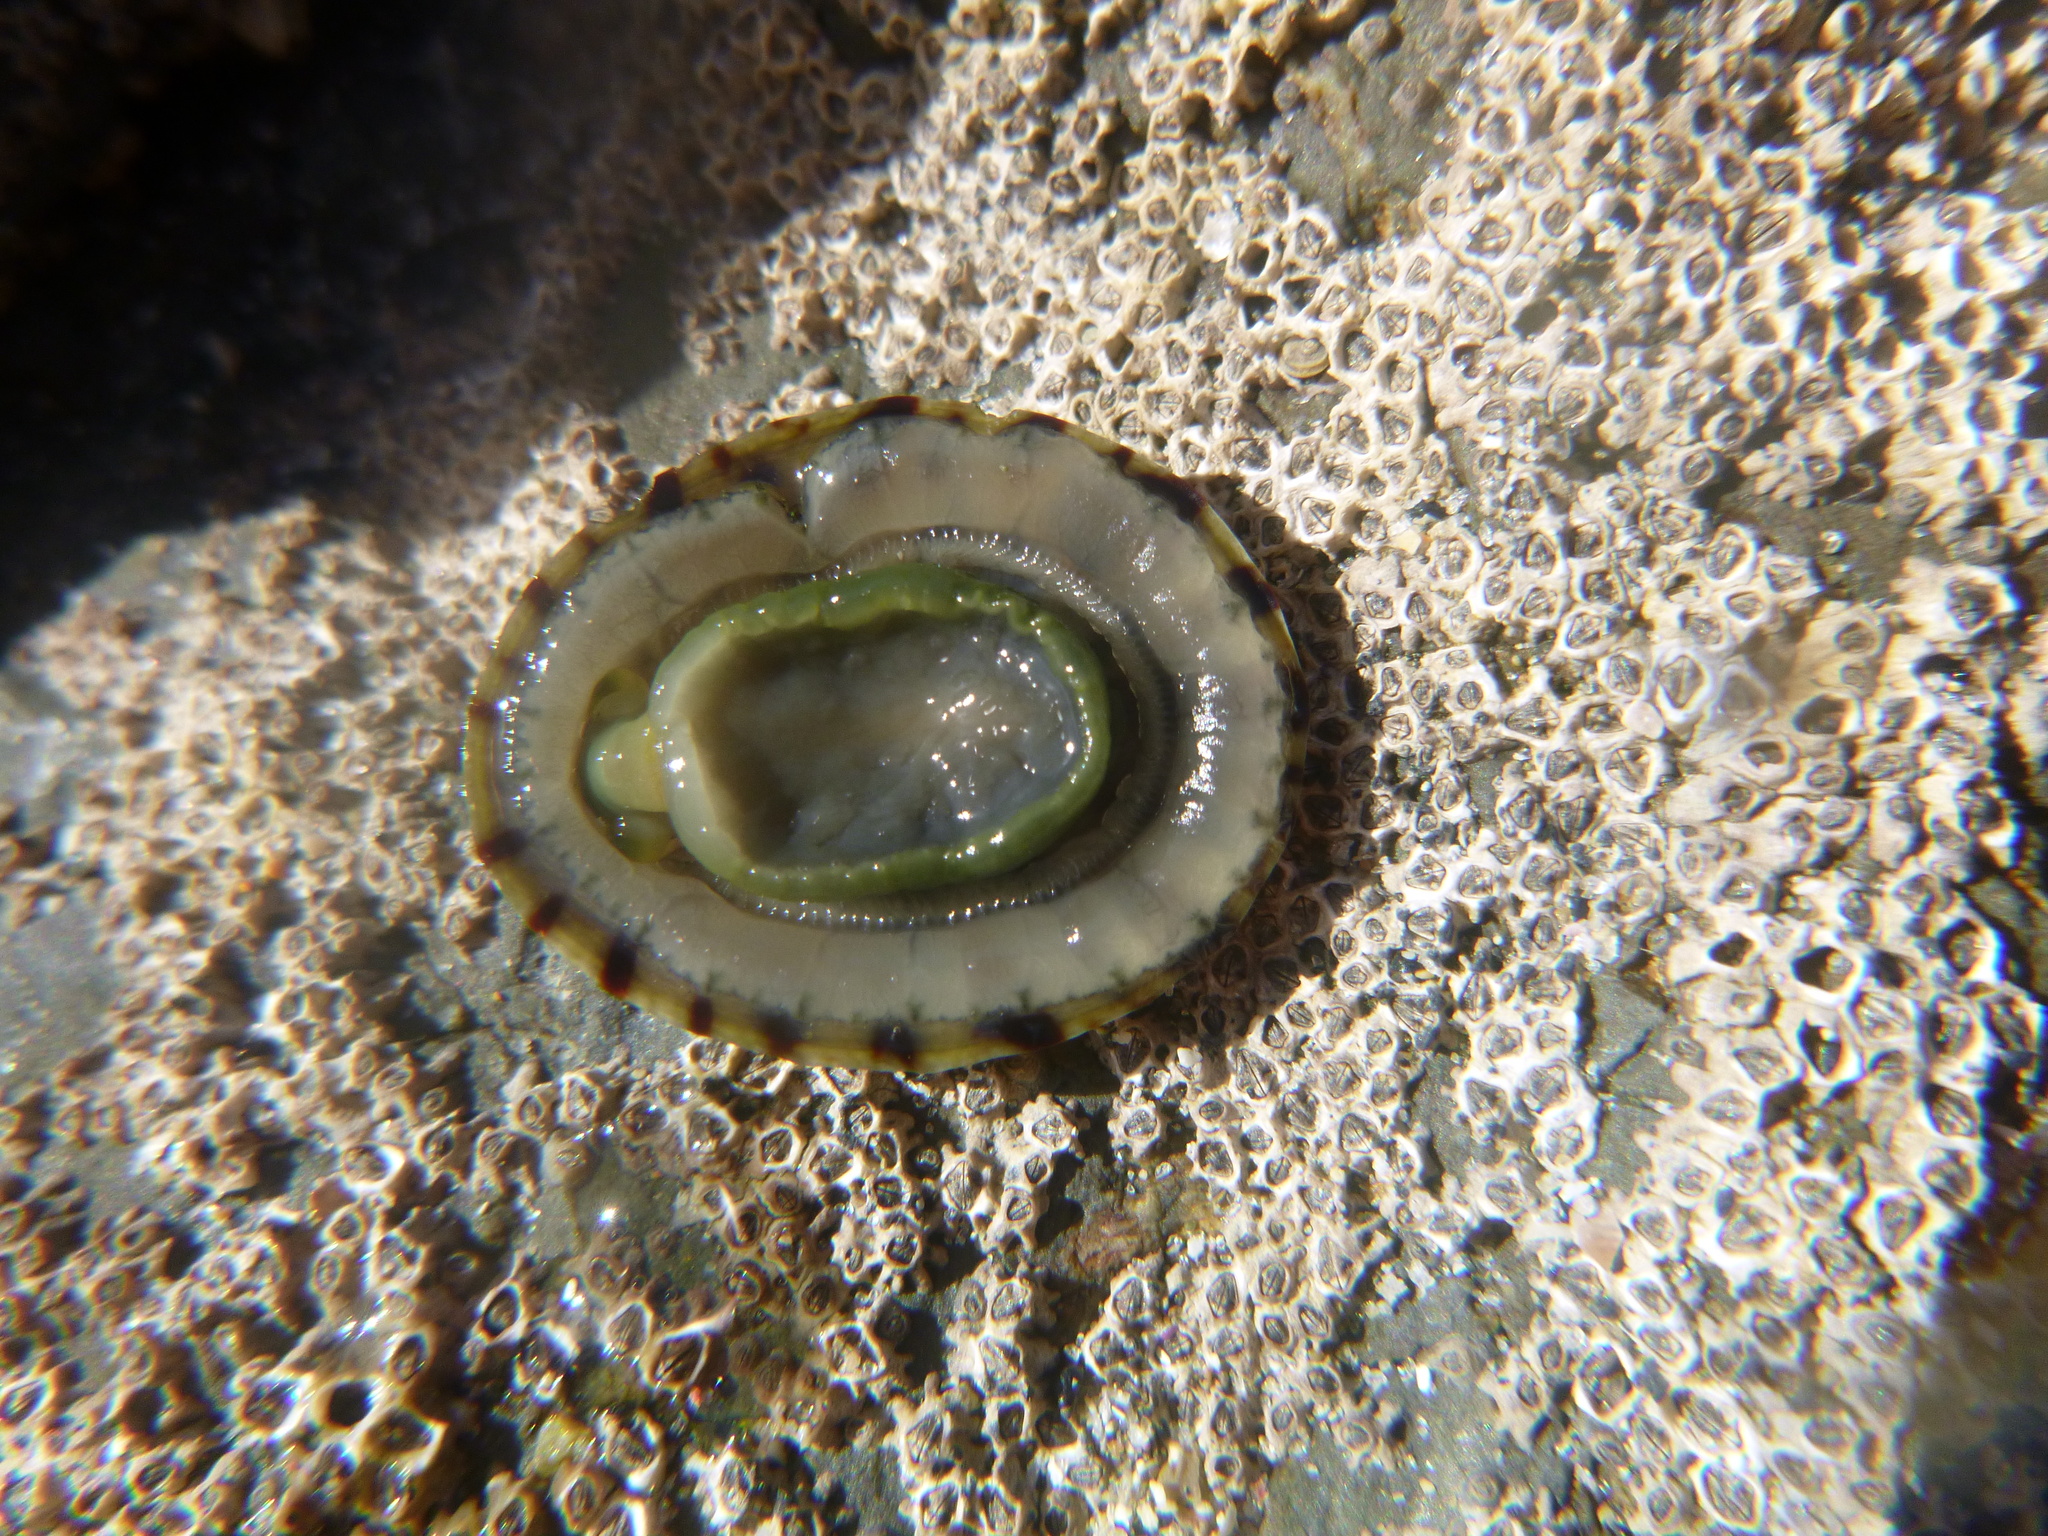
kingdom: Animalia
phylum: Mollusca
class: Gastropoda
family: Nacellidae
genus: Cellana
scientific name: Cellana radians
